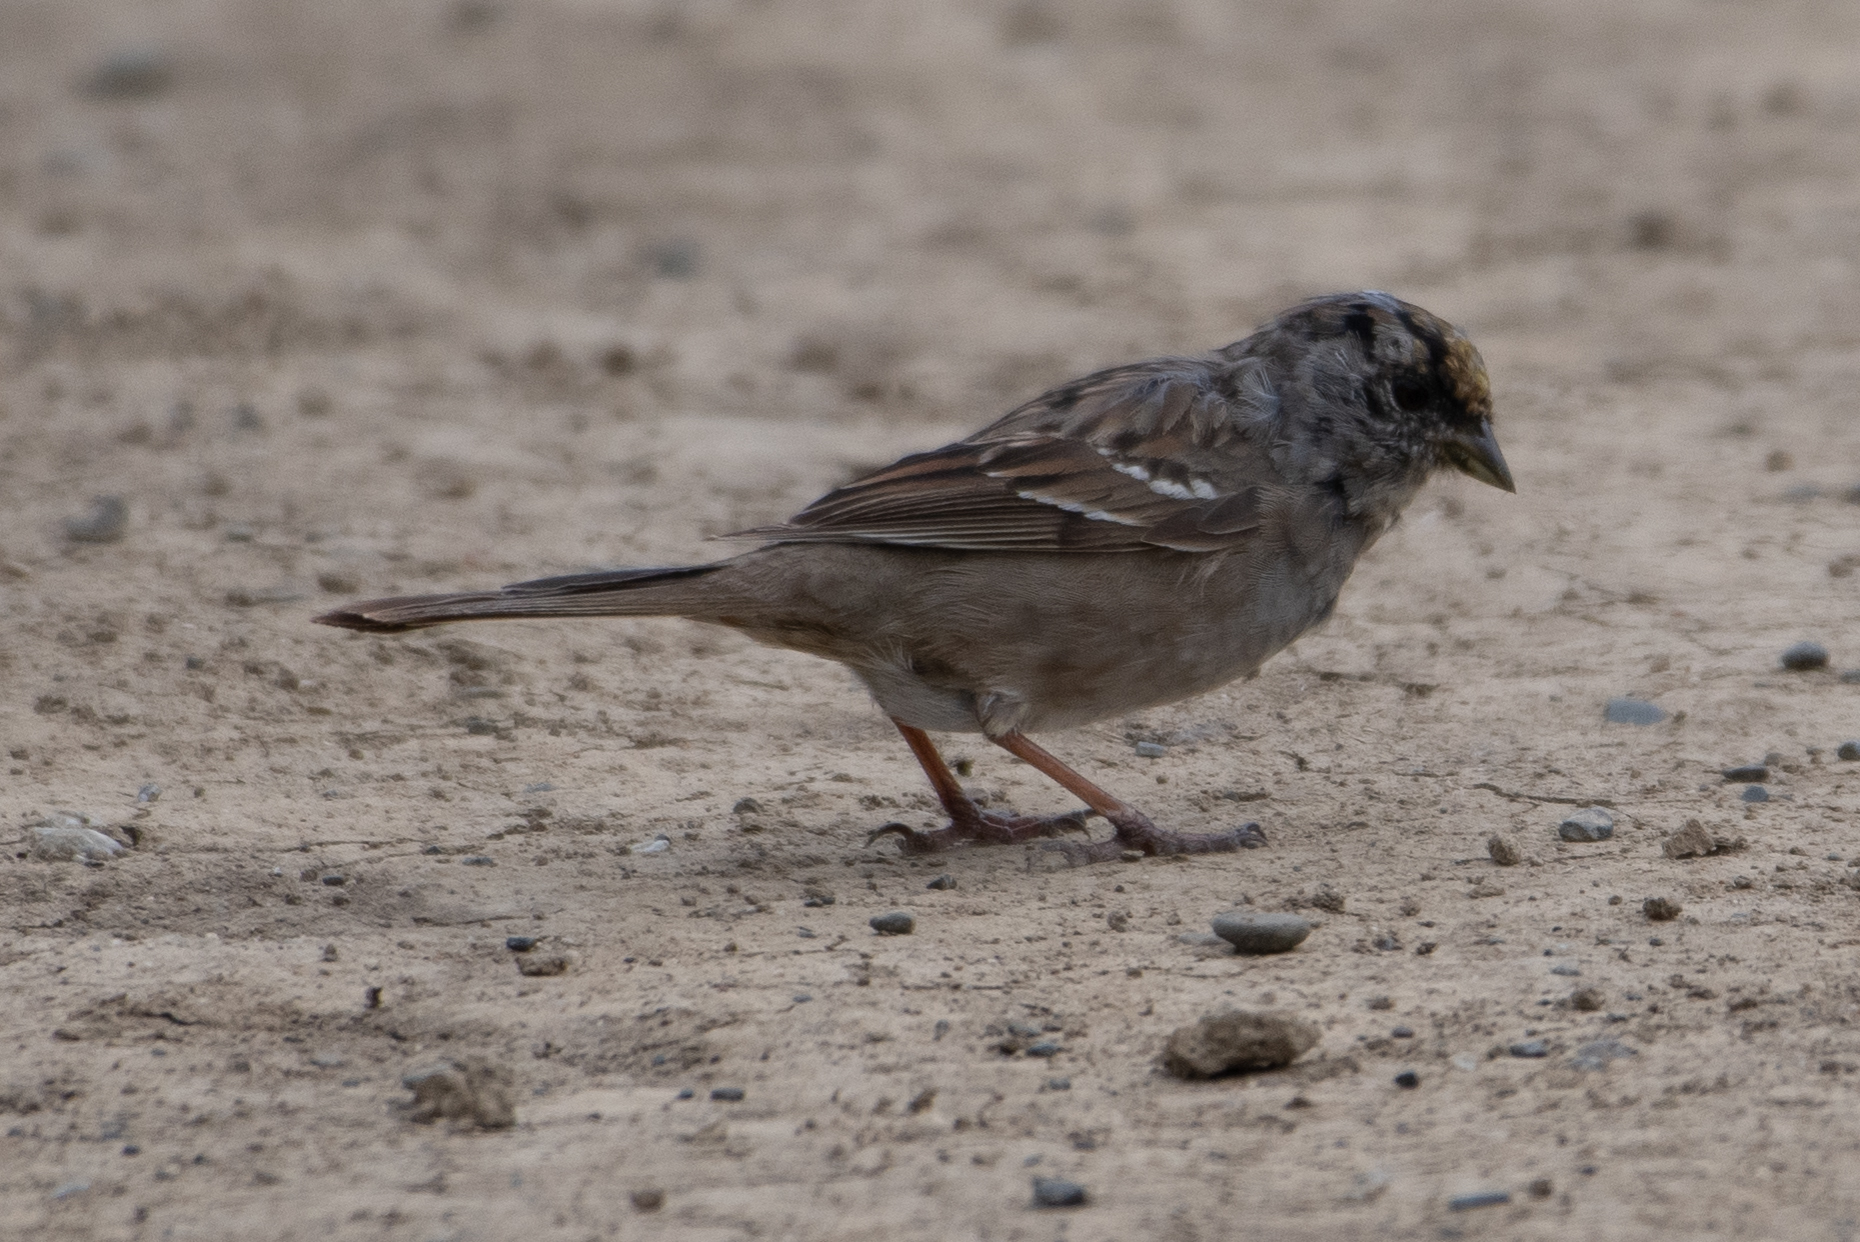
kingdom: Animalia
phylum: Chordata
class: Aves
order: Passeriformes
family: Passerellidae
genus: Zonotrichia
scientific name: Zonotrichia atricapilla
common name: Golden-crowned sparrow
